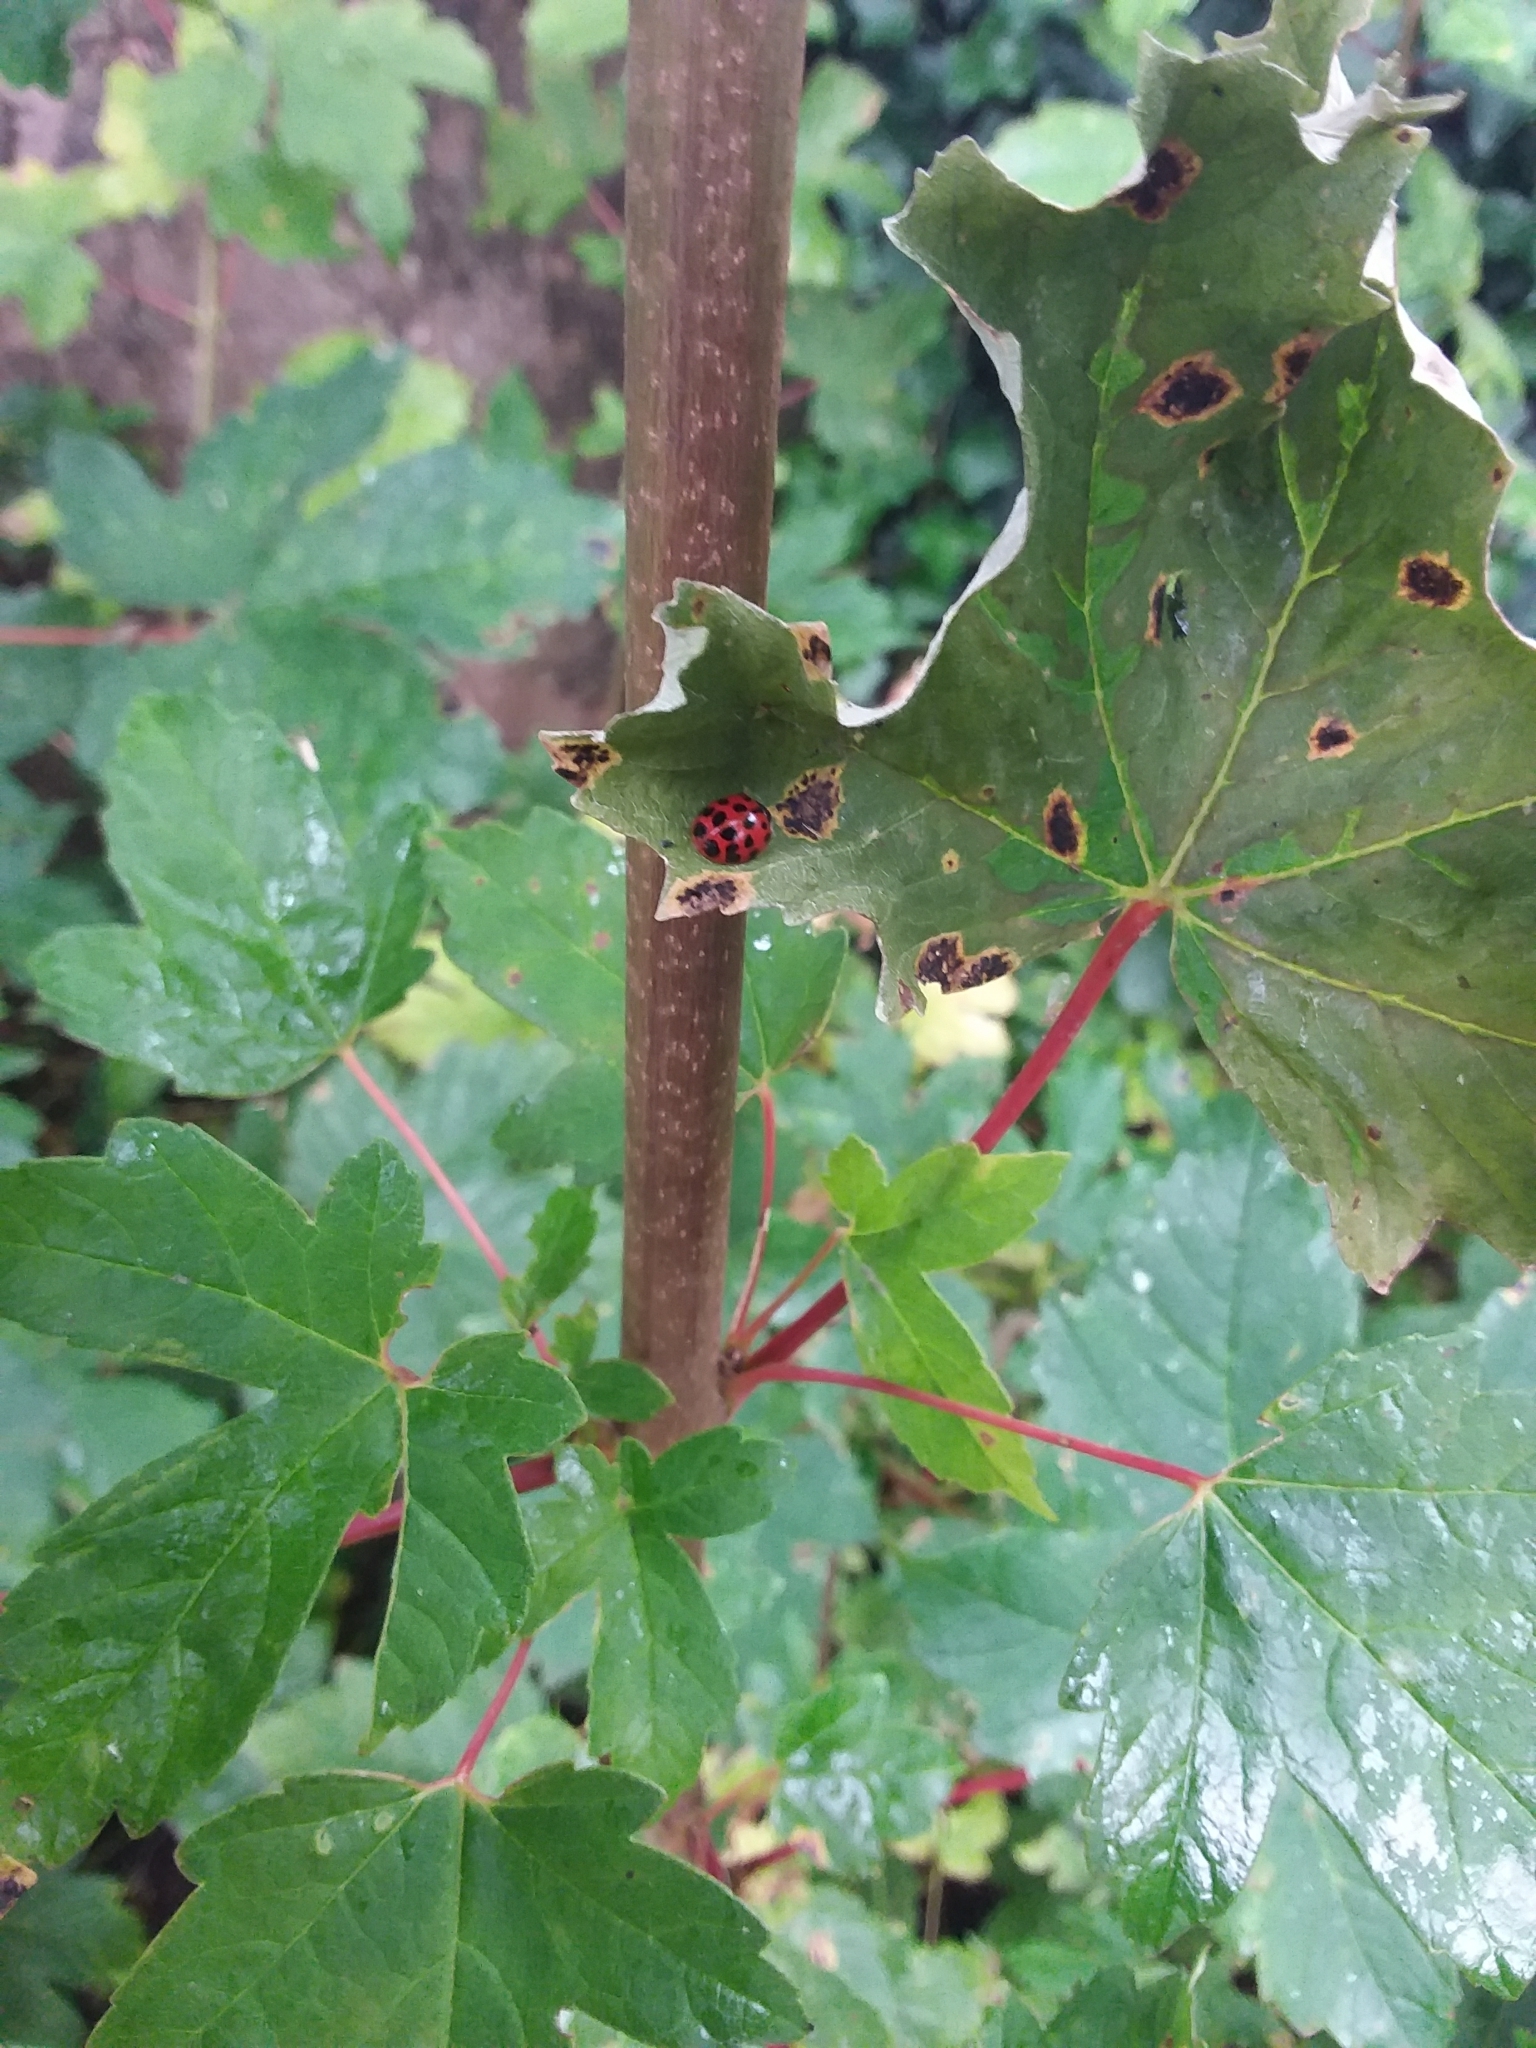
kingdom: Animalia
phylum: Arthropoda
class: Insecta
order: Coleoptera
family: Coccinellidae
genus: Harmonia
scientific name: Harmonia axyridis
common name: Harlequin ladybird
